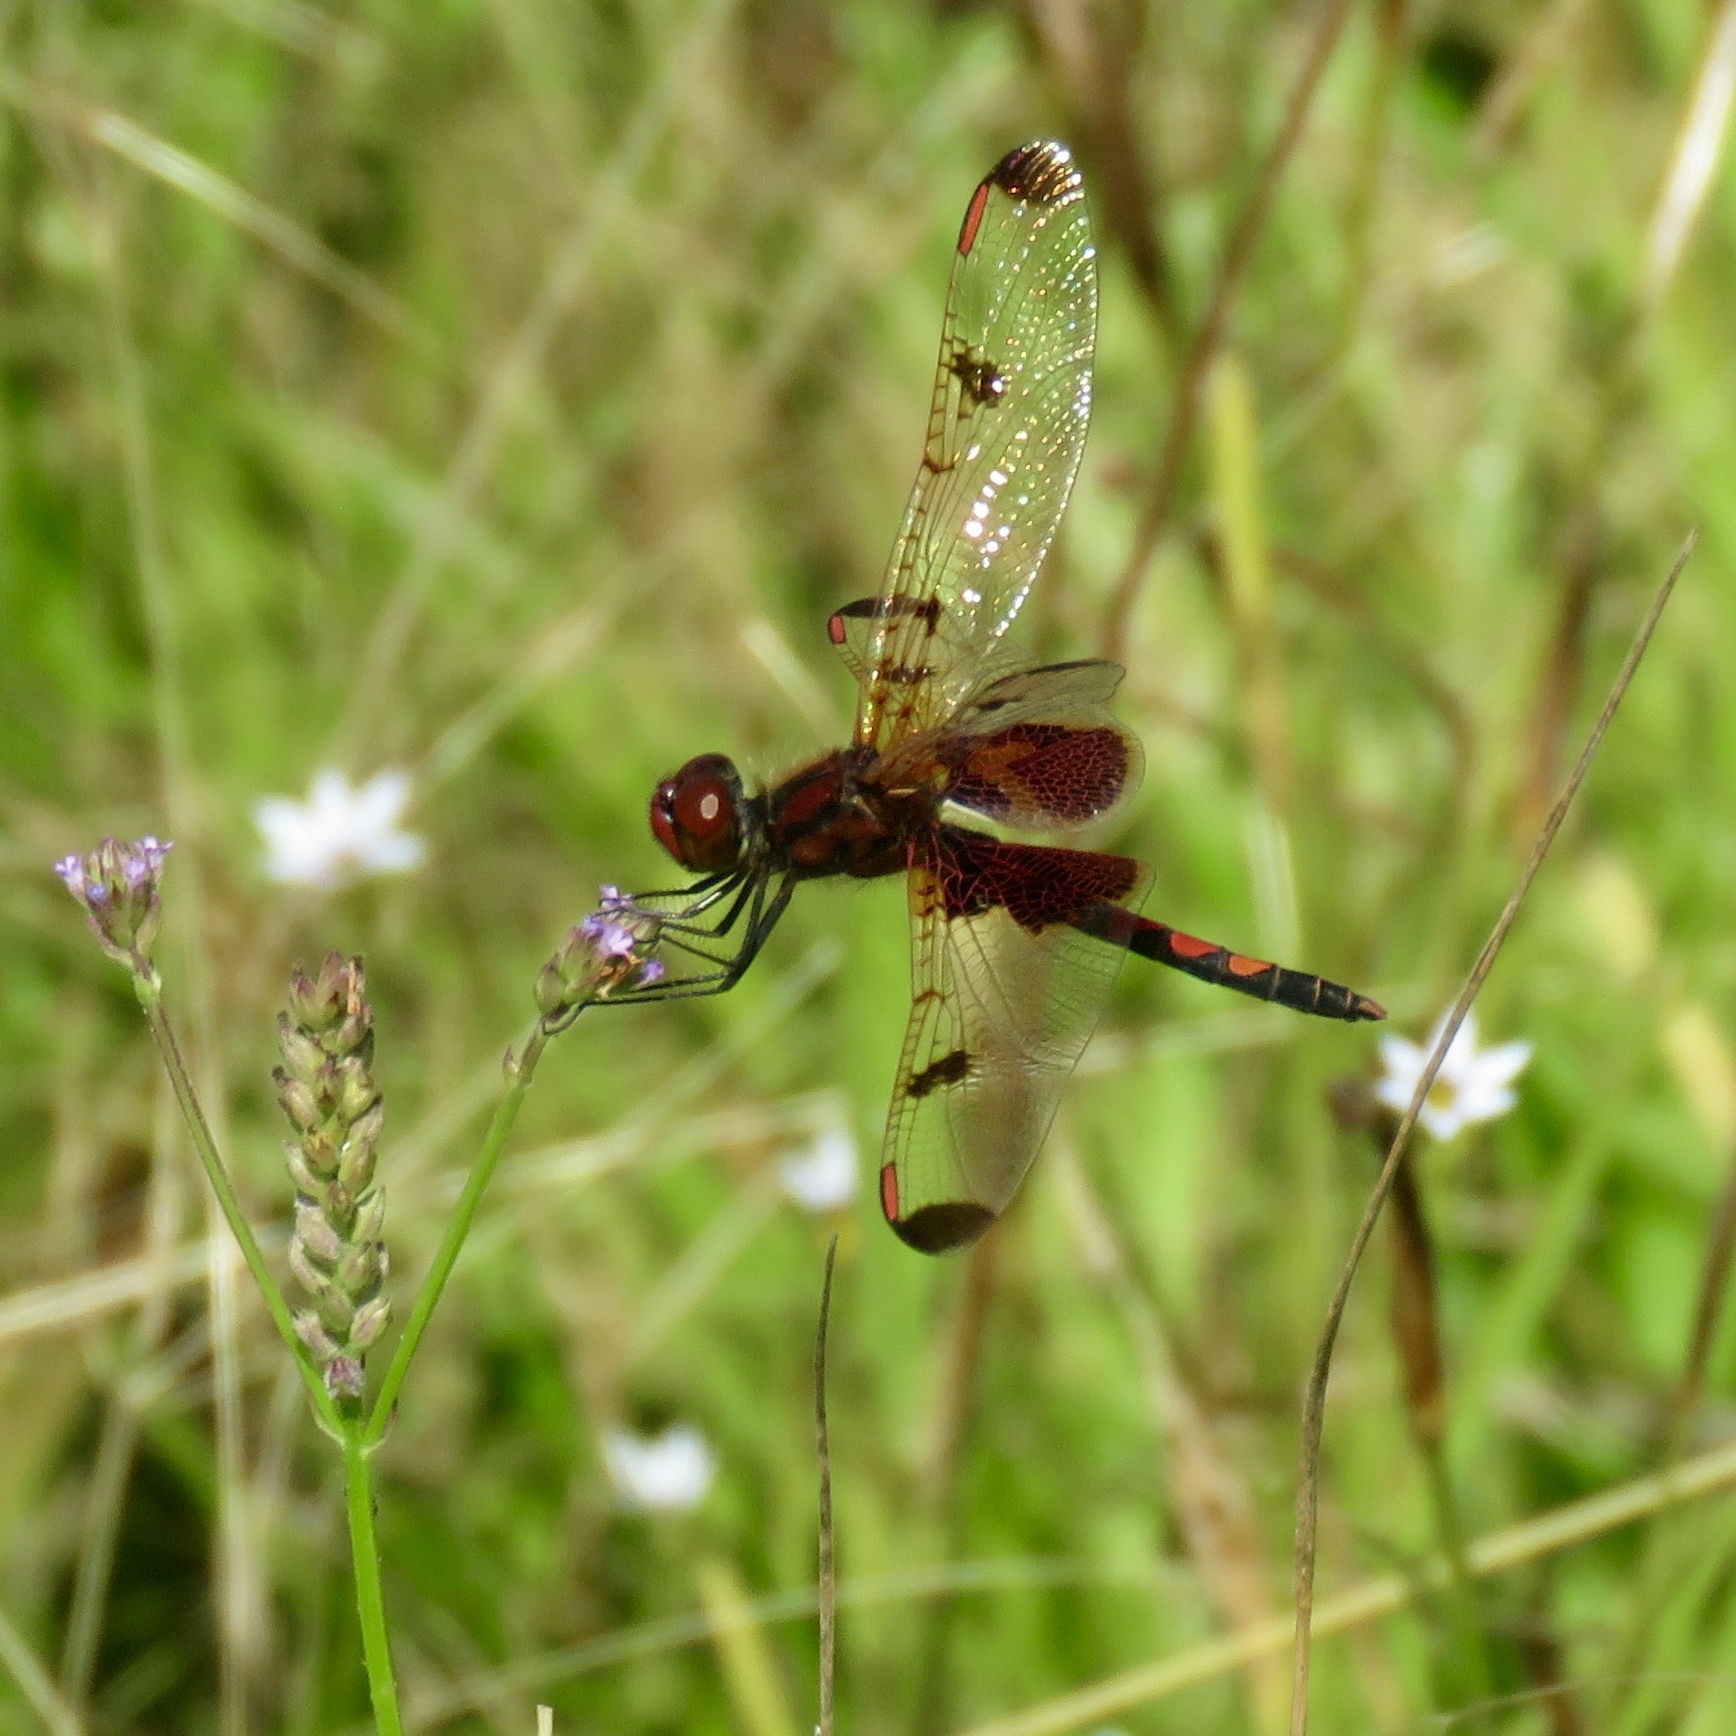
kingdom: Animalia
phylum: Arthropoda
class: Insecta
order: Odonata
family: Libellulidae
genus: Celithemis
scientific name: Celithemis elisa
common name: Calico pennant
